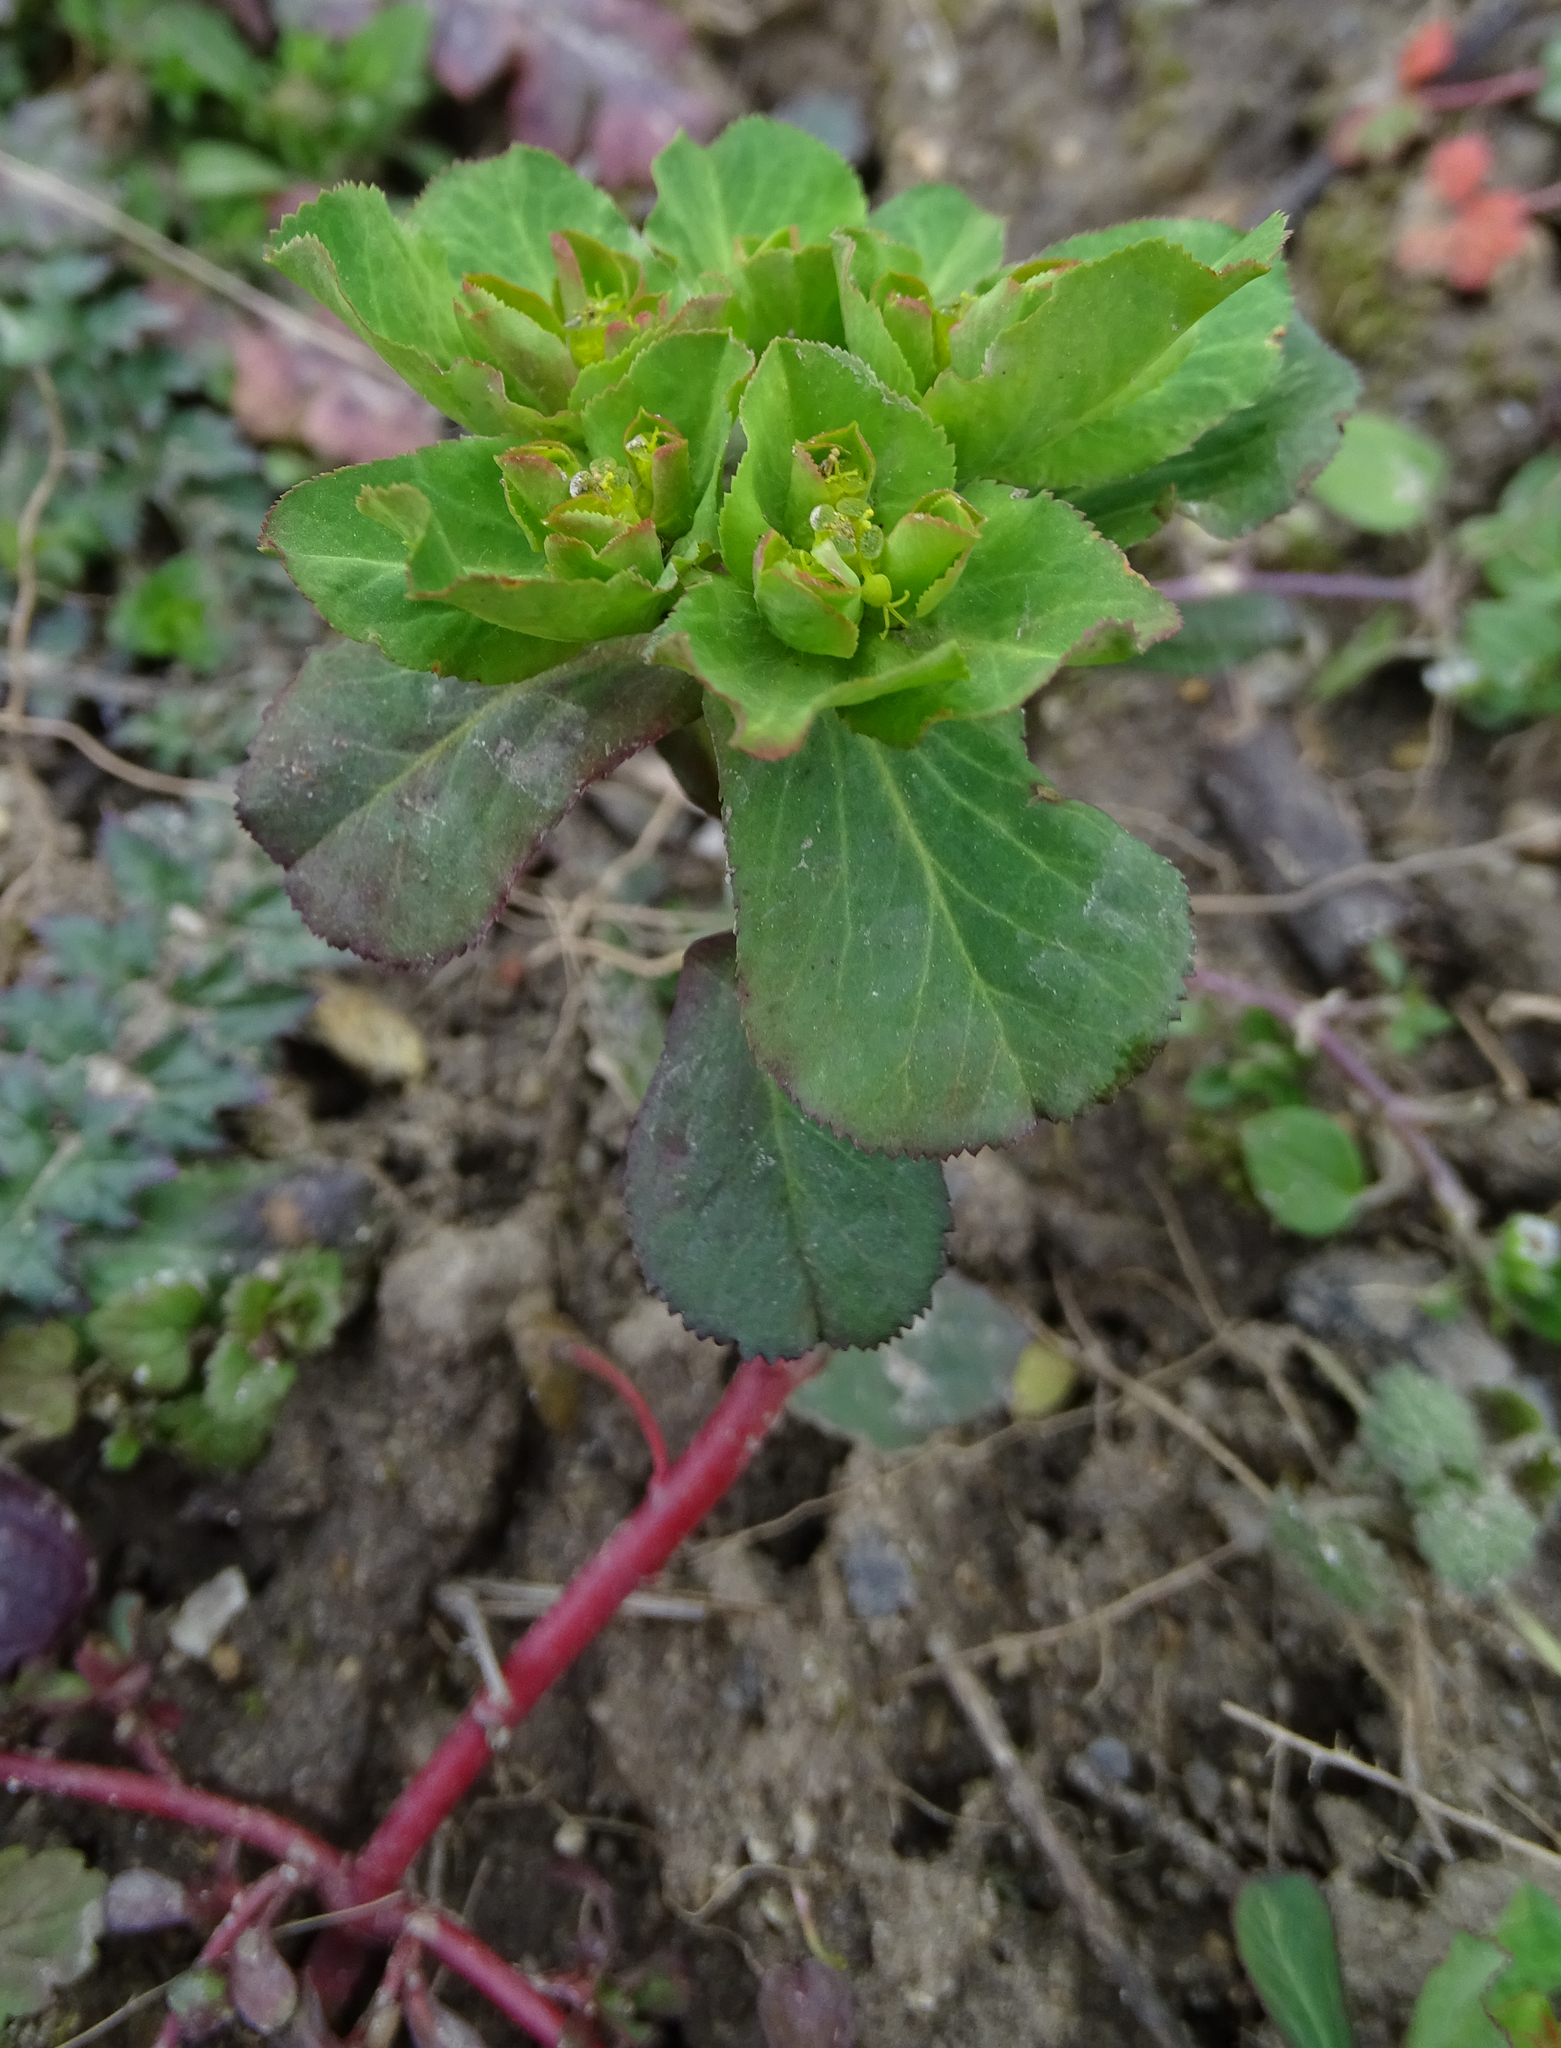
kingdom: Plantae
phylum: Tracheophyta
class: Magnoliopsida
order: Malpighiales
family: Euphorbiaceae
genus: Euphorbia
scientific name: Euphorbia helioscopia
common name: Sun spurge
